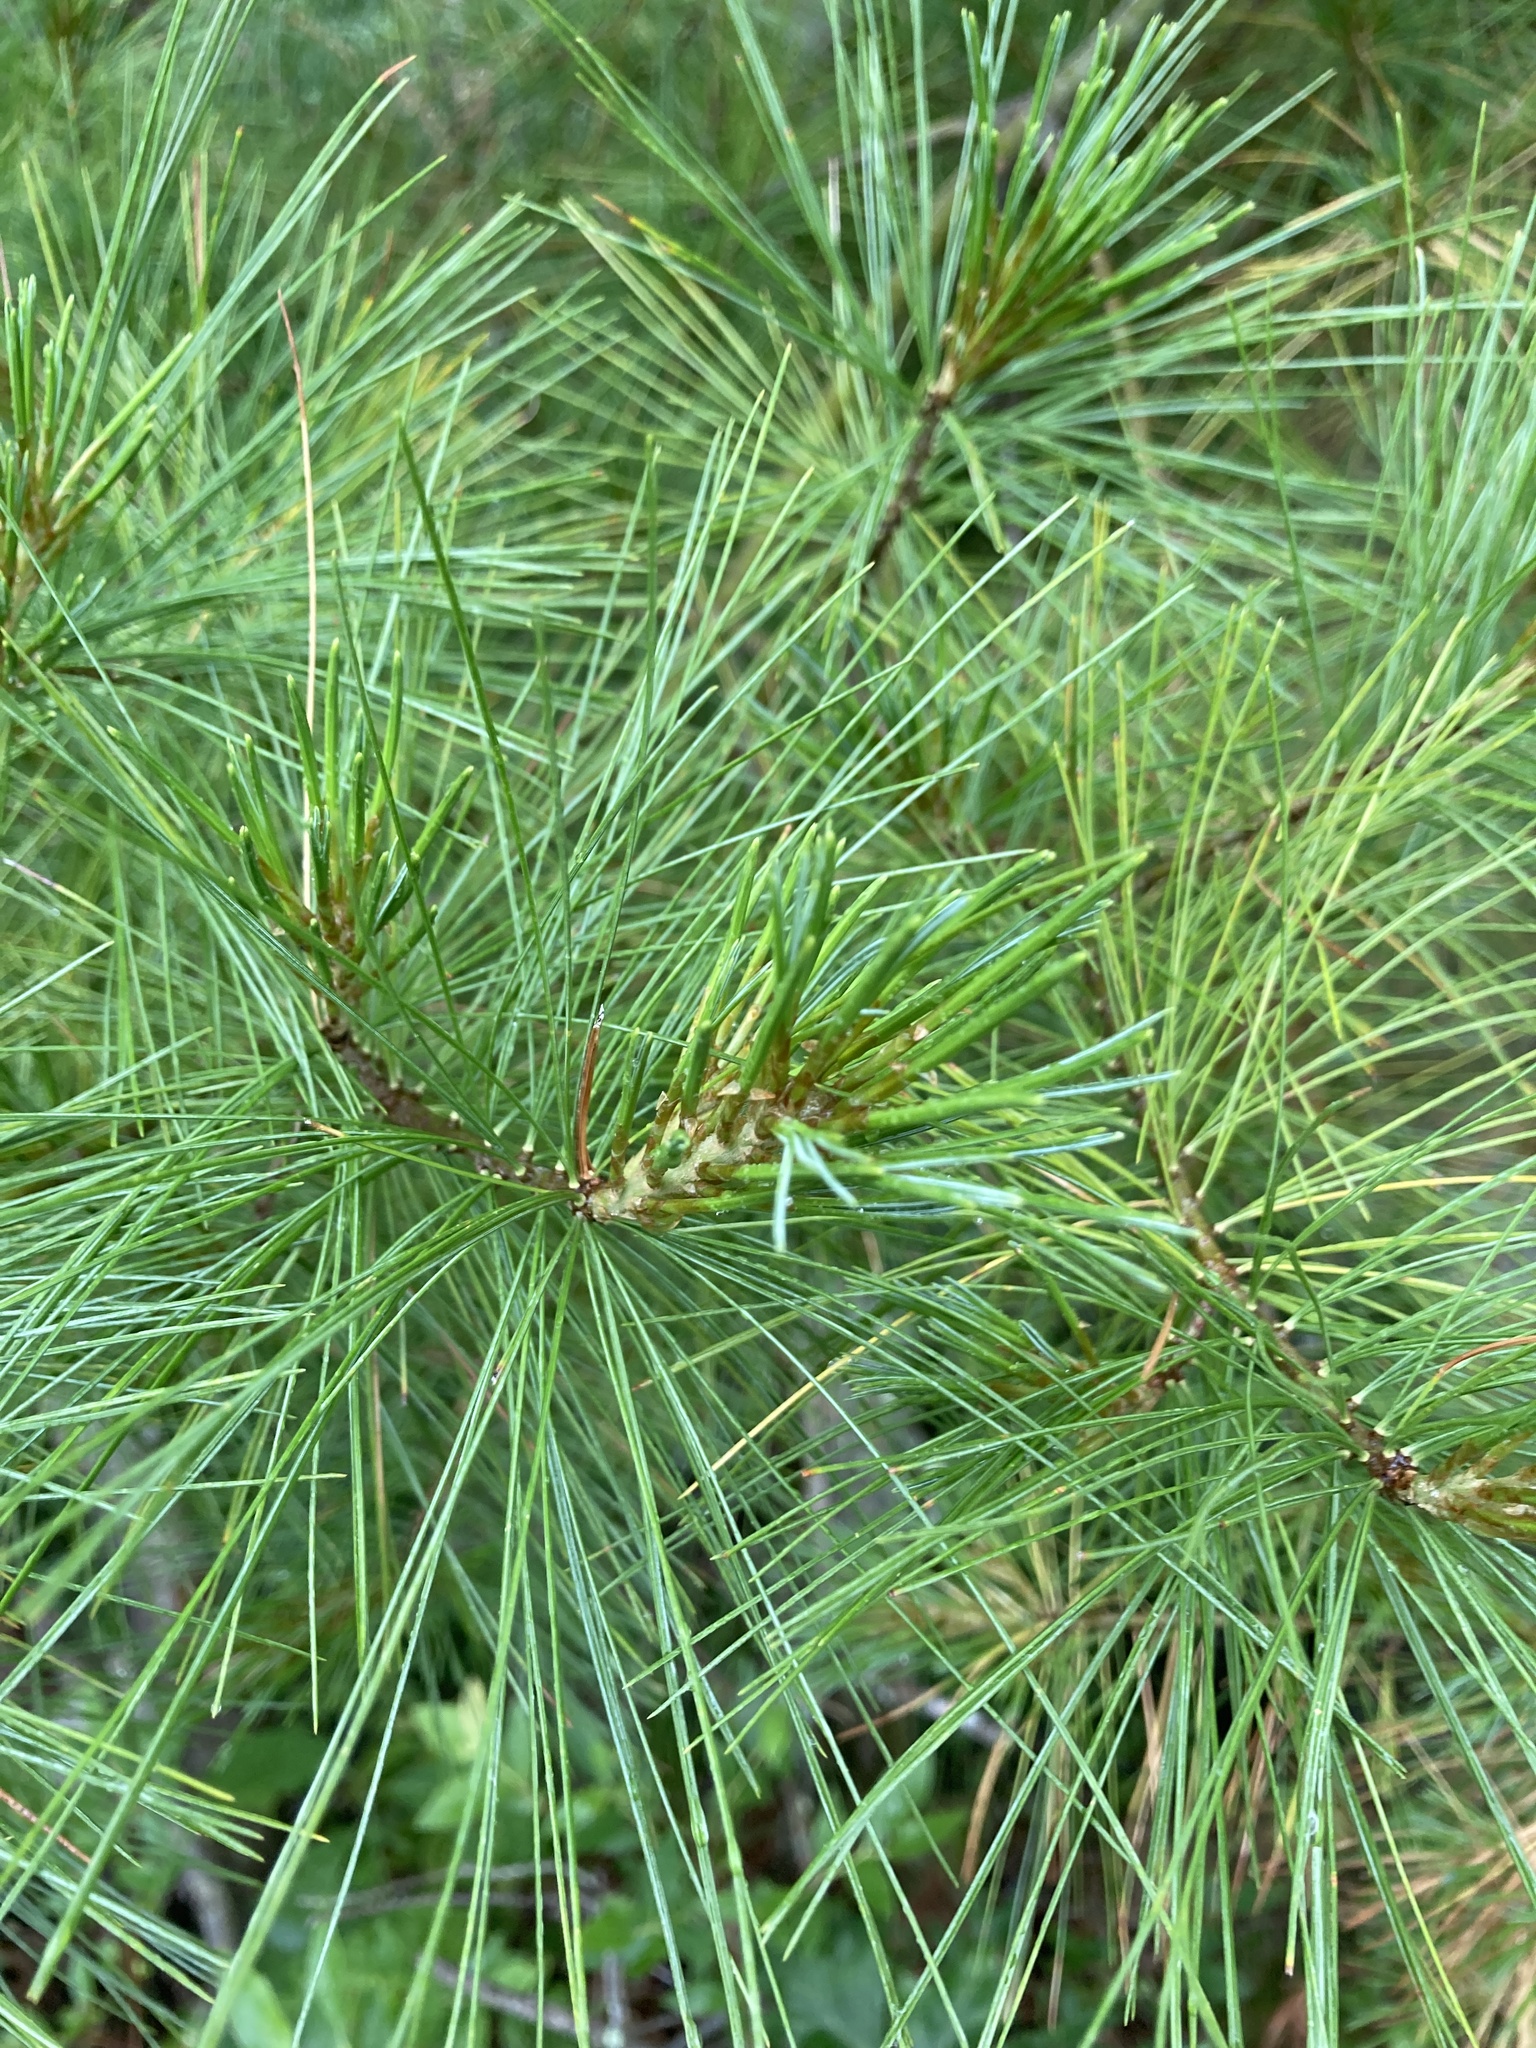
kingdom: Plantae
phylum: Tracheophyta
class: Pinopsida
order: Pinales
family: Pinaceae
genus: Pinus
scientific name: Pinus strobus
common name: Weymouth pine
